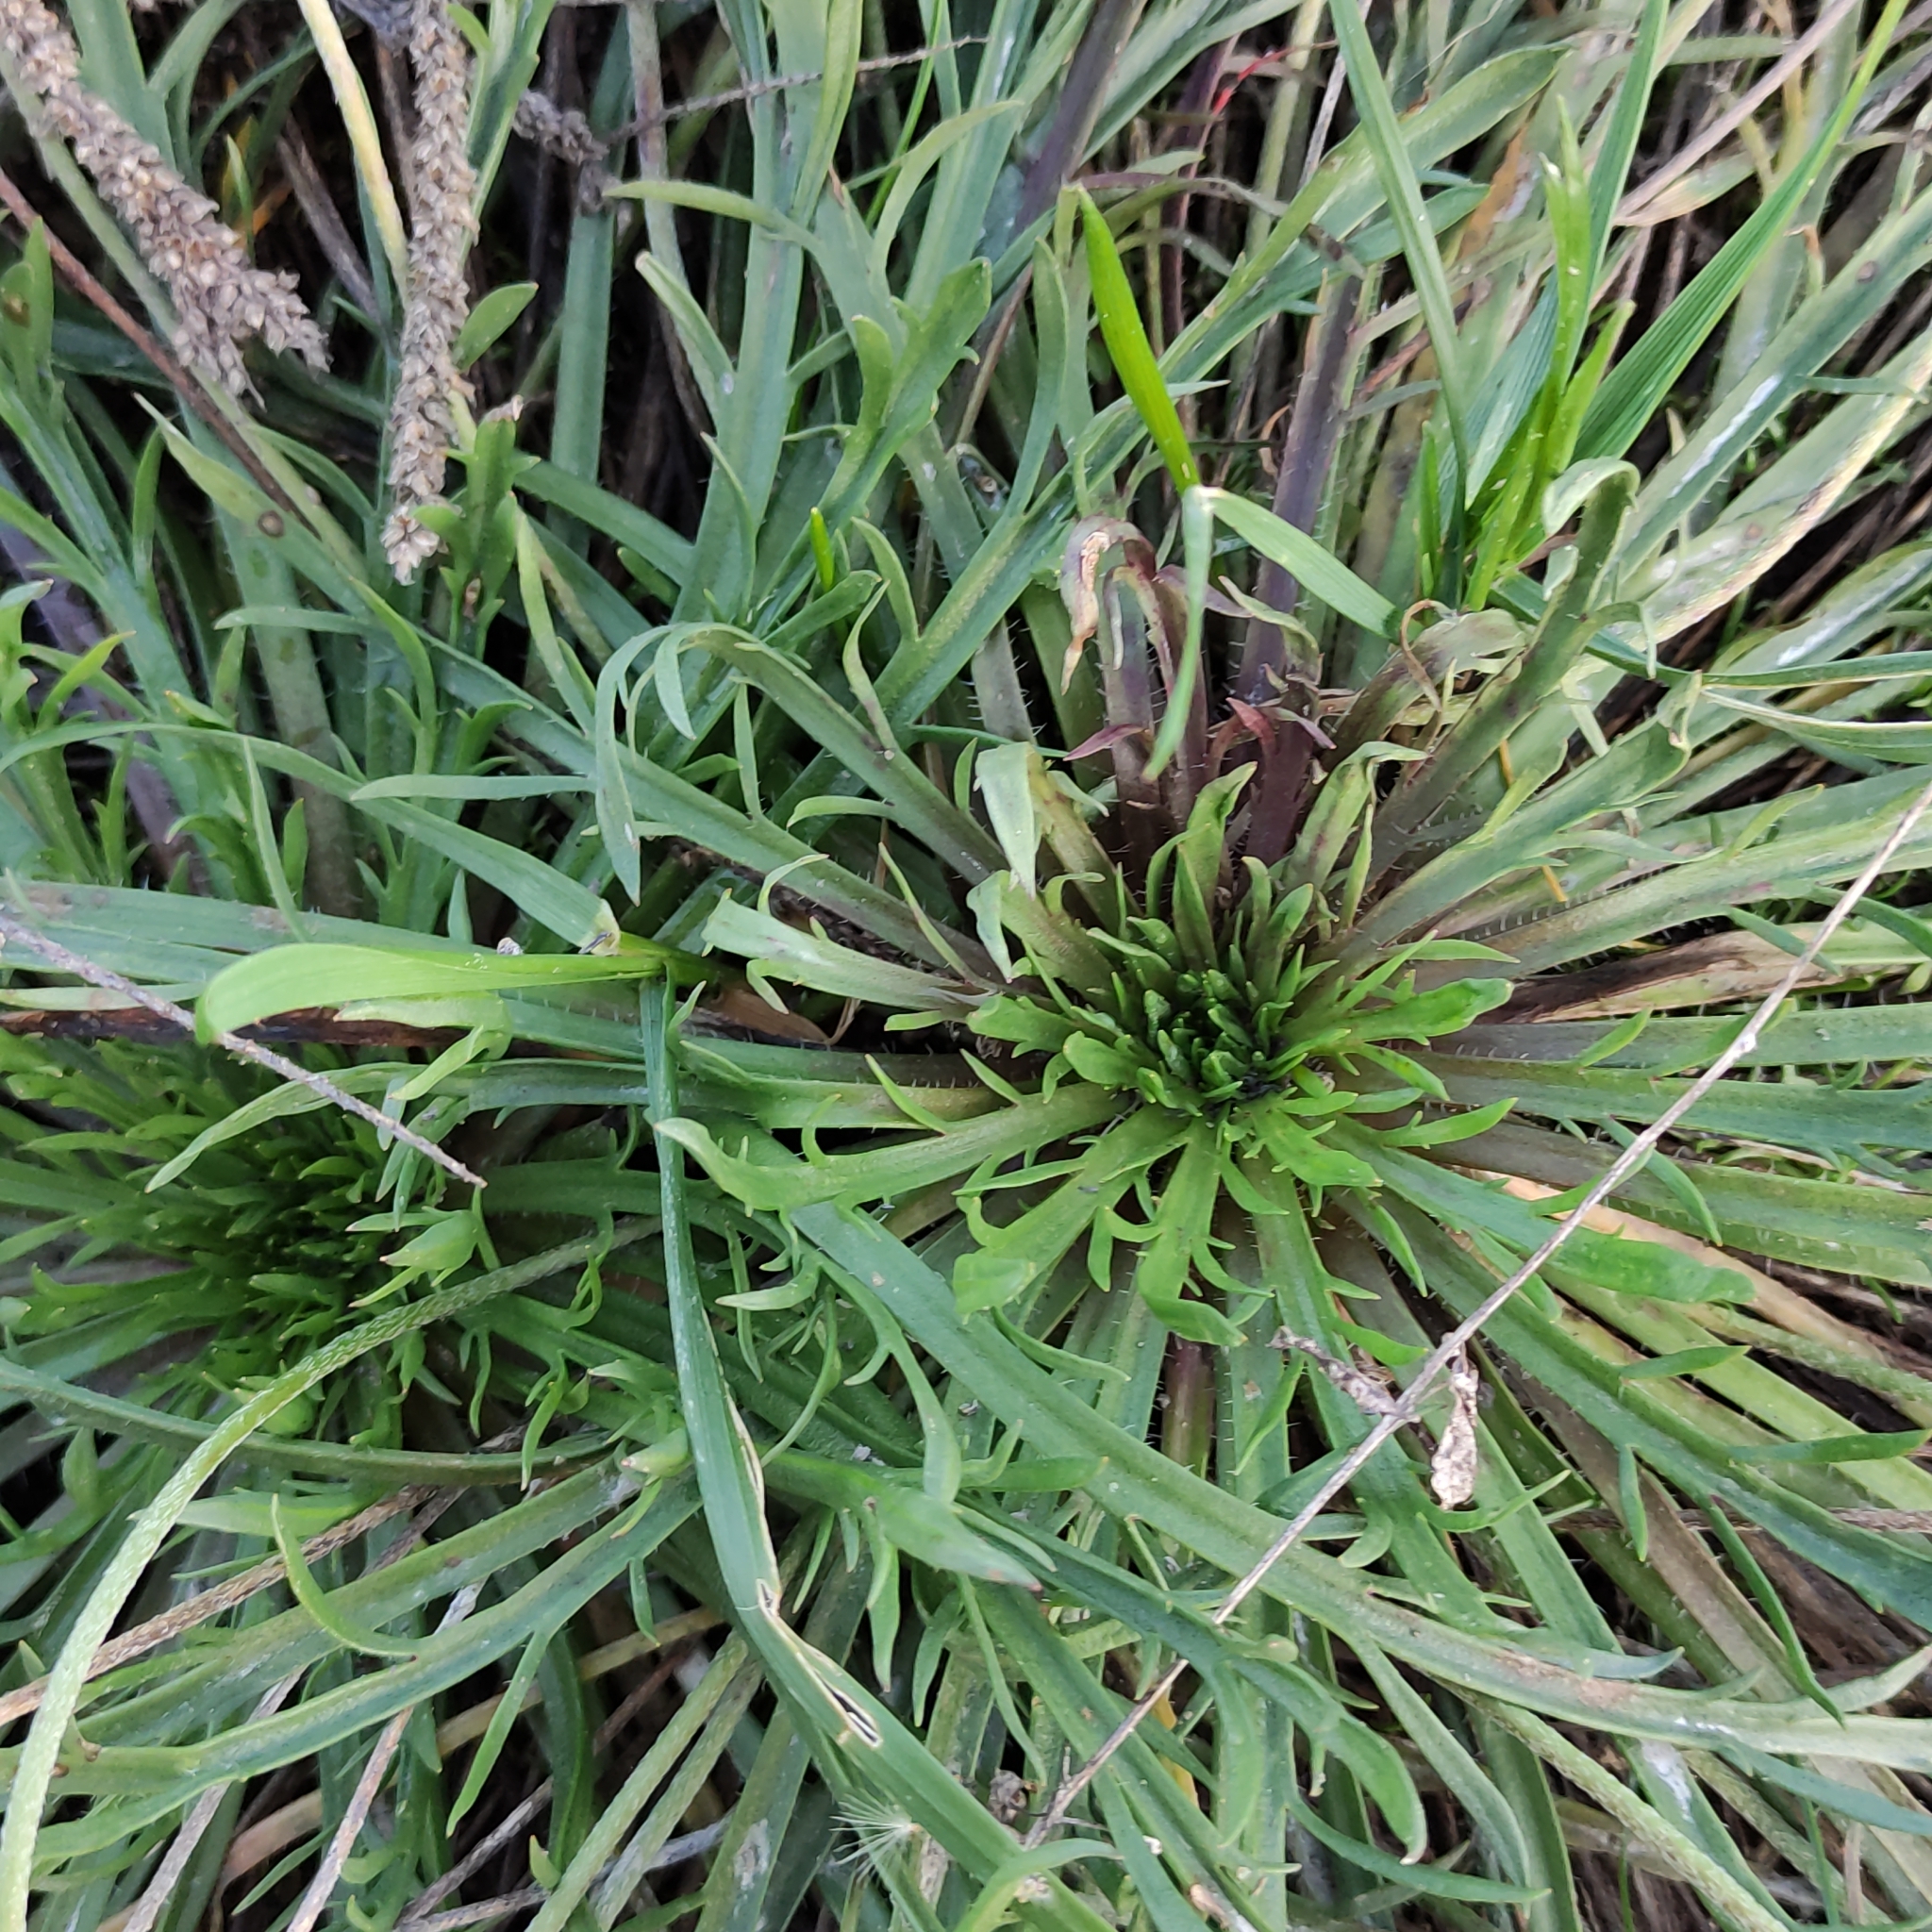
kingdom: Plantae
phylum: Tracheophyta
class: Magnoliopsida
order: Lamiales
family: Plantaginaceae
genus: Plantago
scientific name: Plantago coronopus
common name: Buck's-horn plantain
